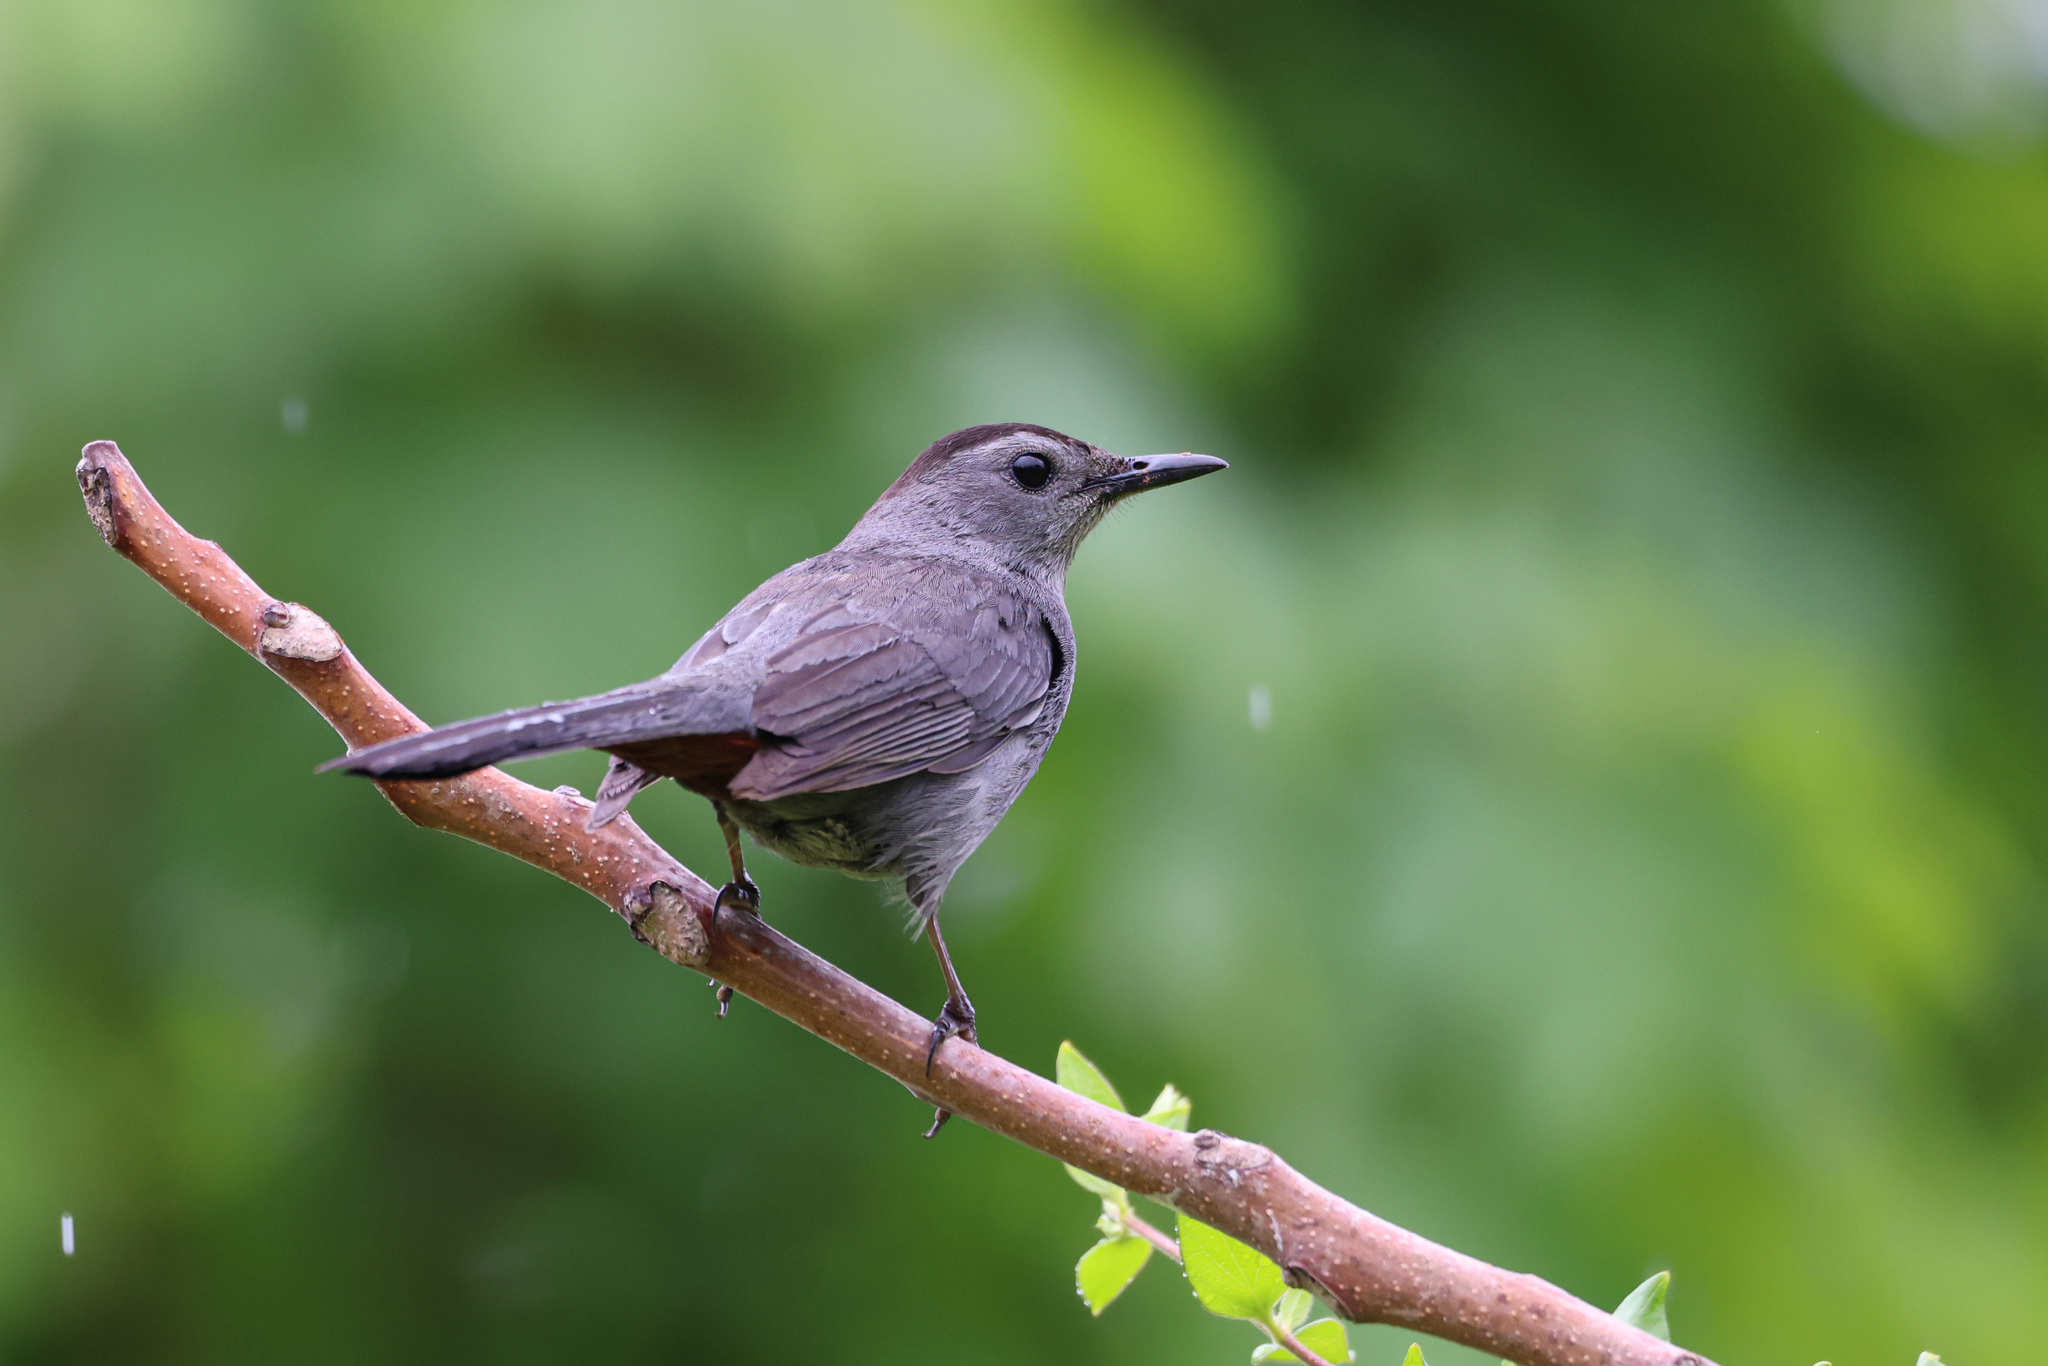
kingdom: Animalia
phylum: Chordata
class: Aves
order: Passeriformes
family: Mimidae
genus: Dumetella
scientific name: Dumetella carolinensis
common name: Gray catbird
